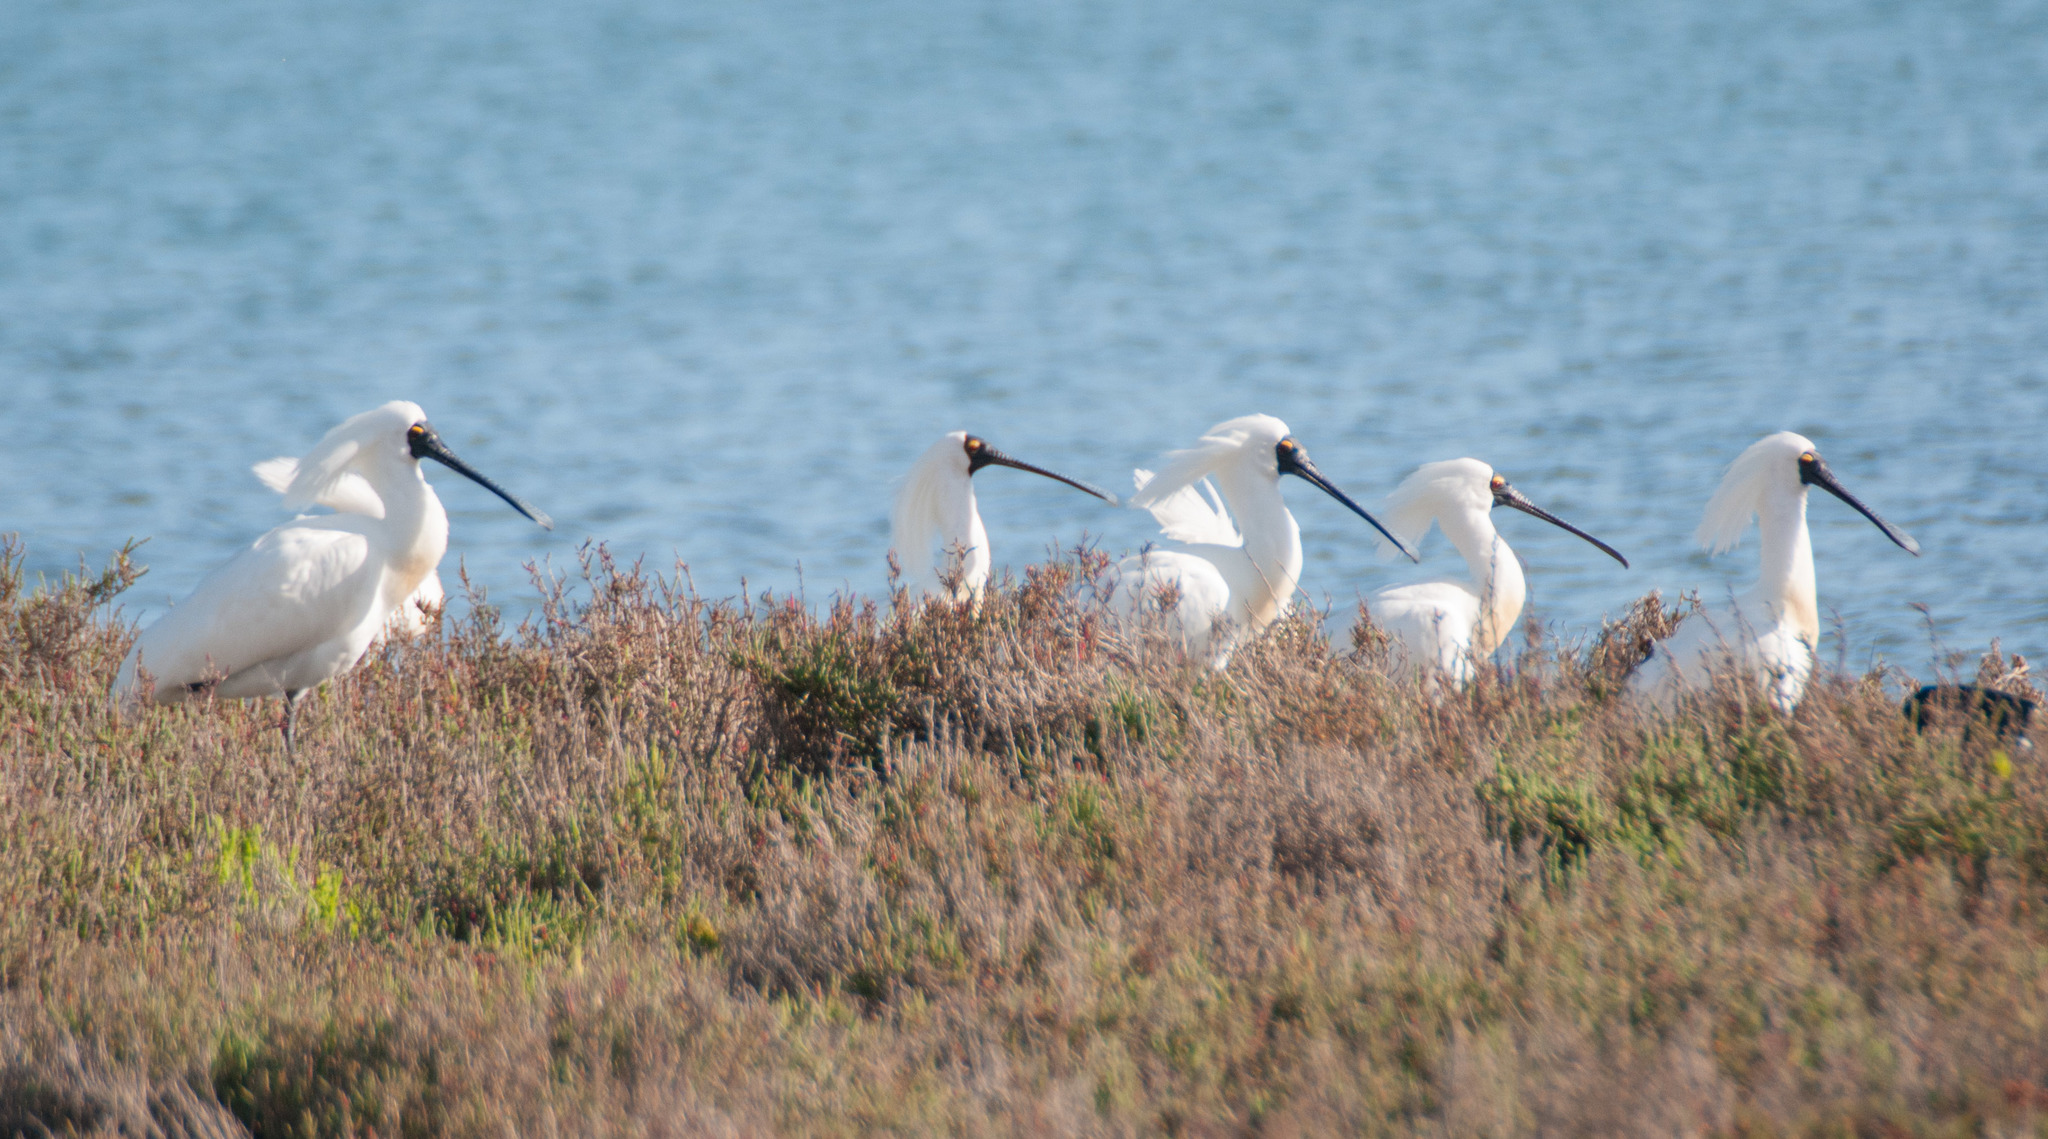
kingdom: Animalia
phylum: Chordata
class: Aves
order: Pelecaniformes
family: Threskiornithidae
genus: Platalea
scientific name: Platalea regia
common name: Royal spoonbill
